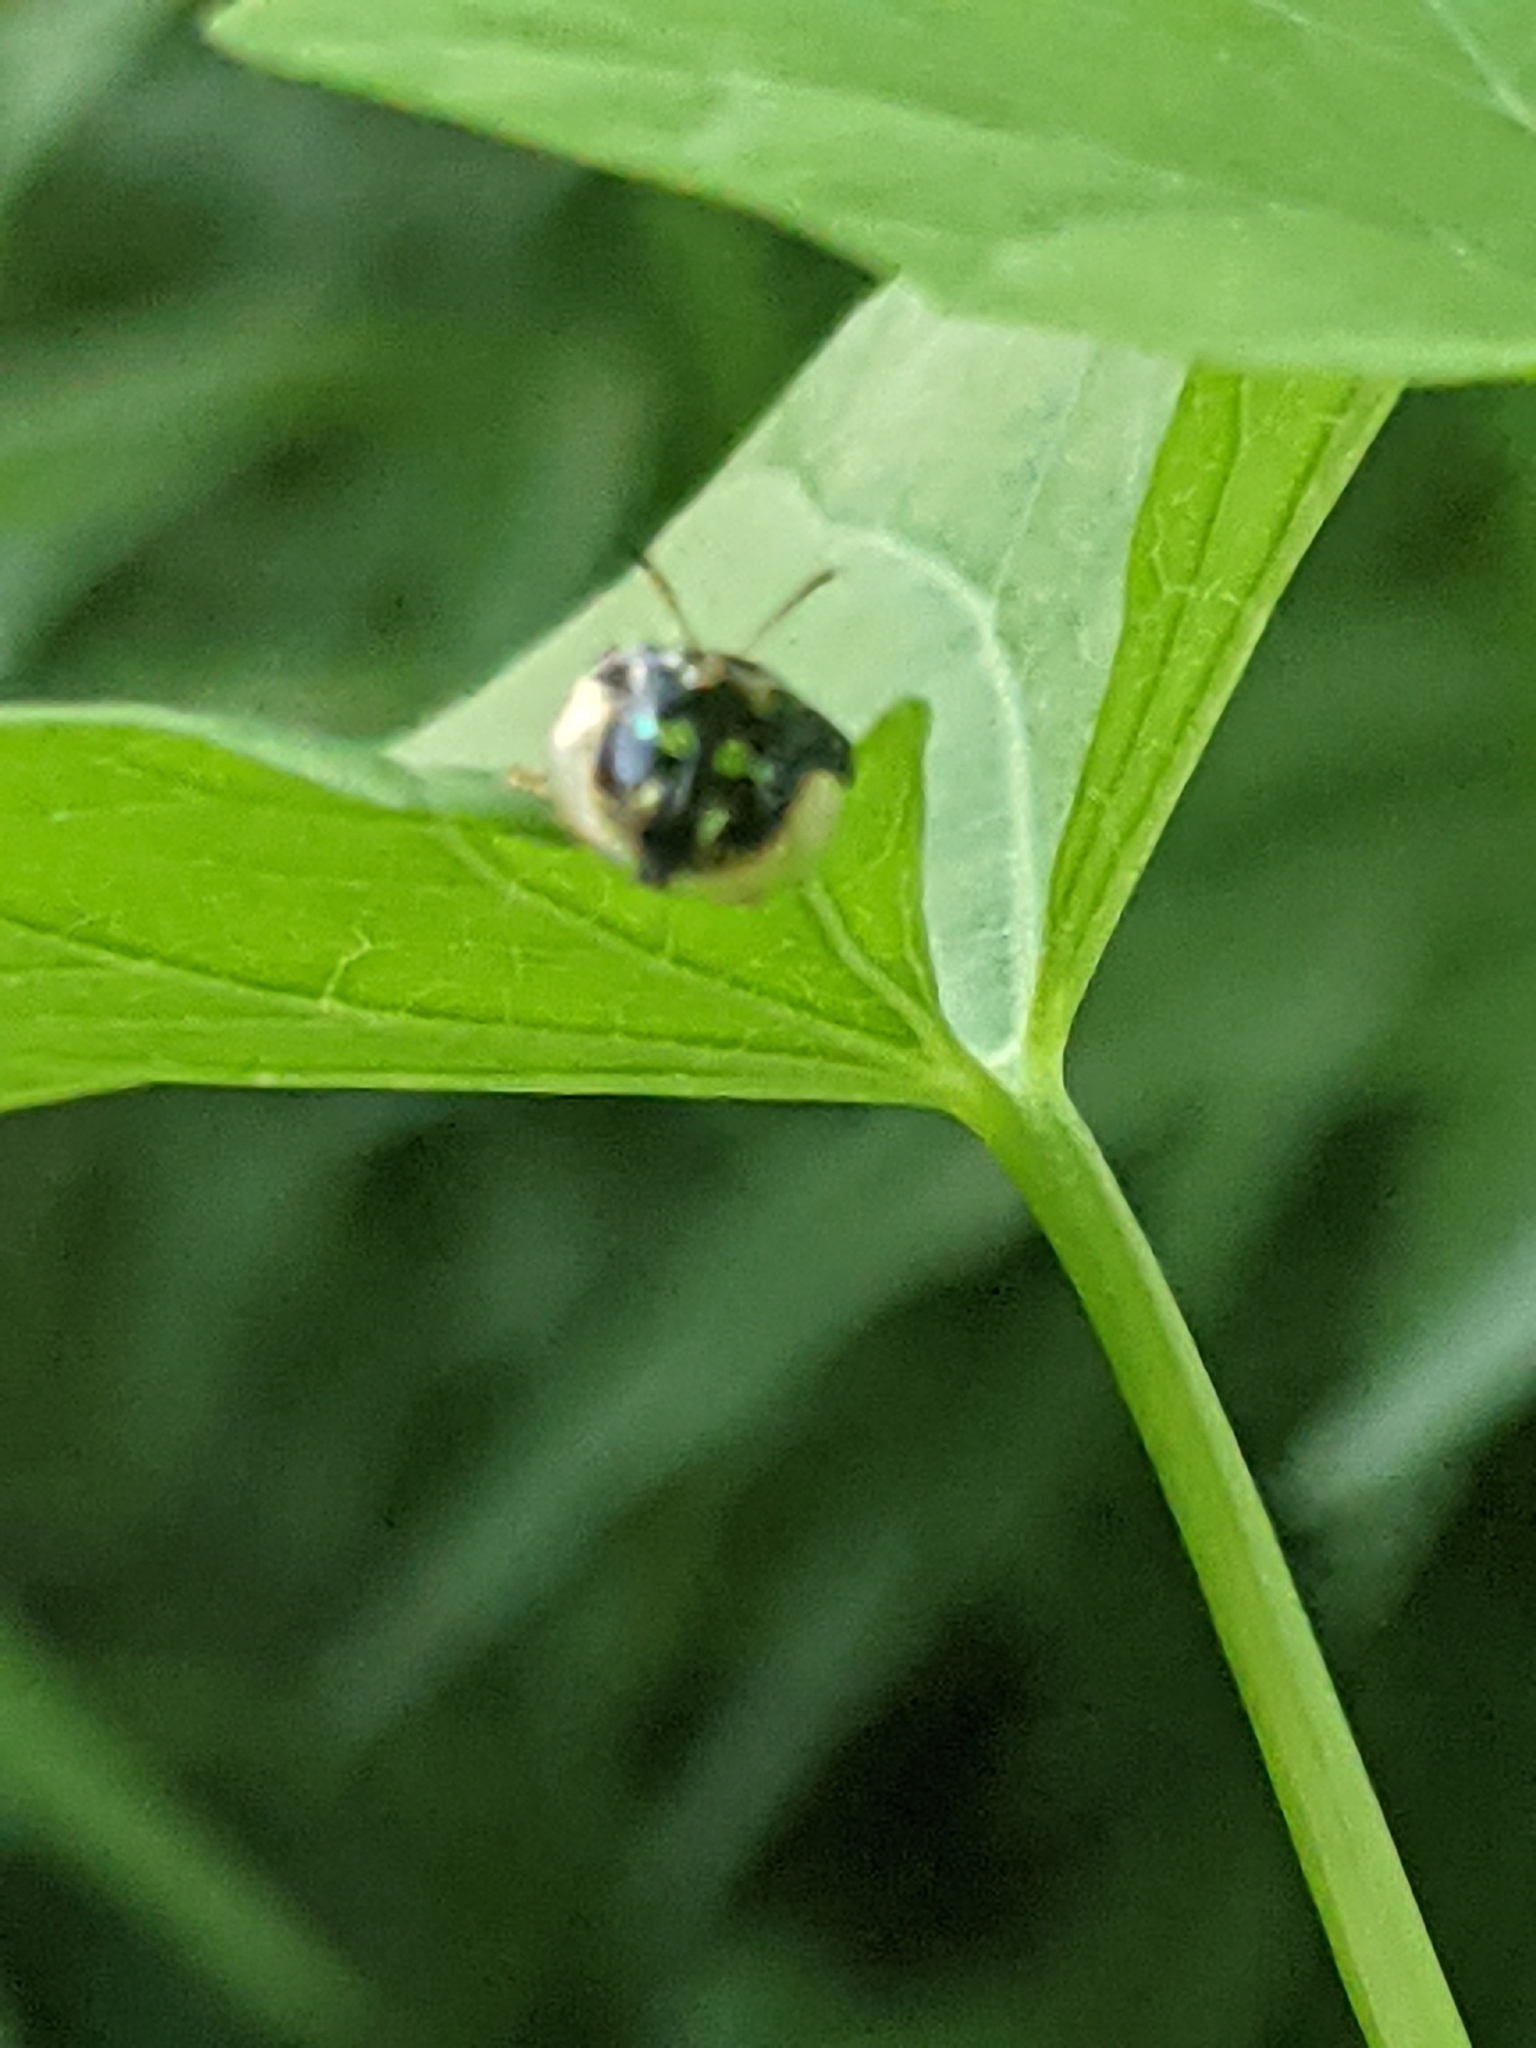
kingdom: Animalia
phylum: Arthropoda
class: Insecta
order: Coleoptera
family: Chrysomelidae
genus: Deloyala
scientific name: Deloyala guttata
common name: Mottled tortoise beetle
